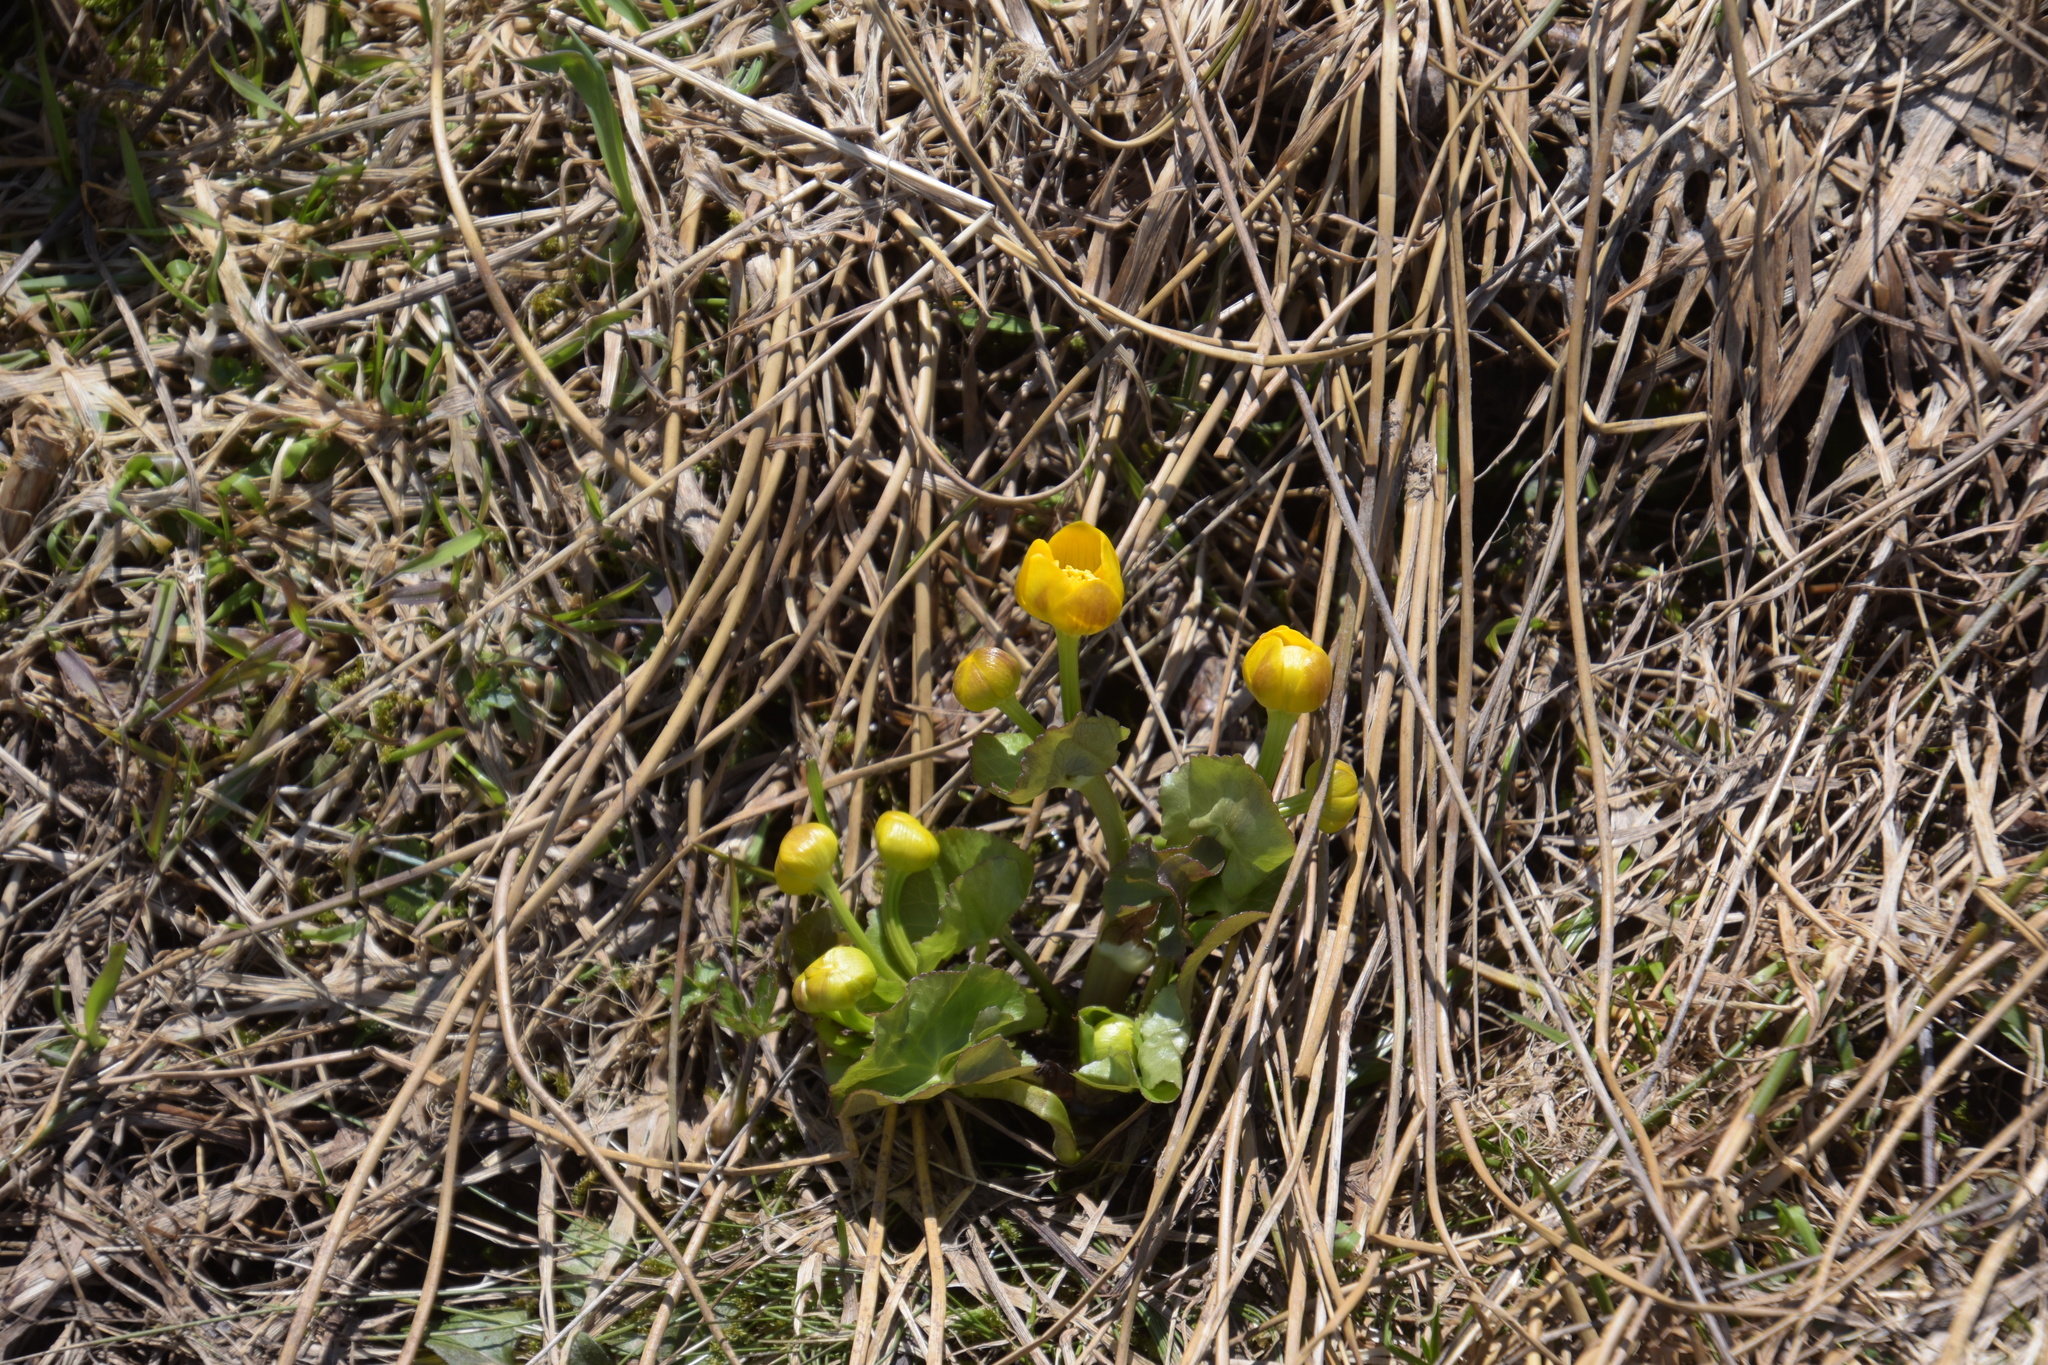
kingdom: Plantae
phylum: Tracheophyta
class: Magnoliopsida
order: Ranunculales
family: Ranunculaceae
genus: Caltha
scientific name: Caltha palustris
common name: Marsh marigold
